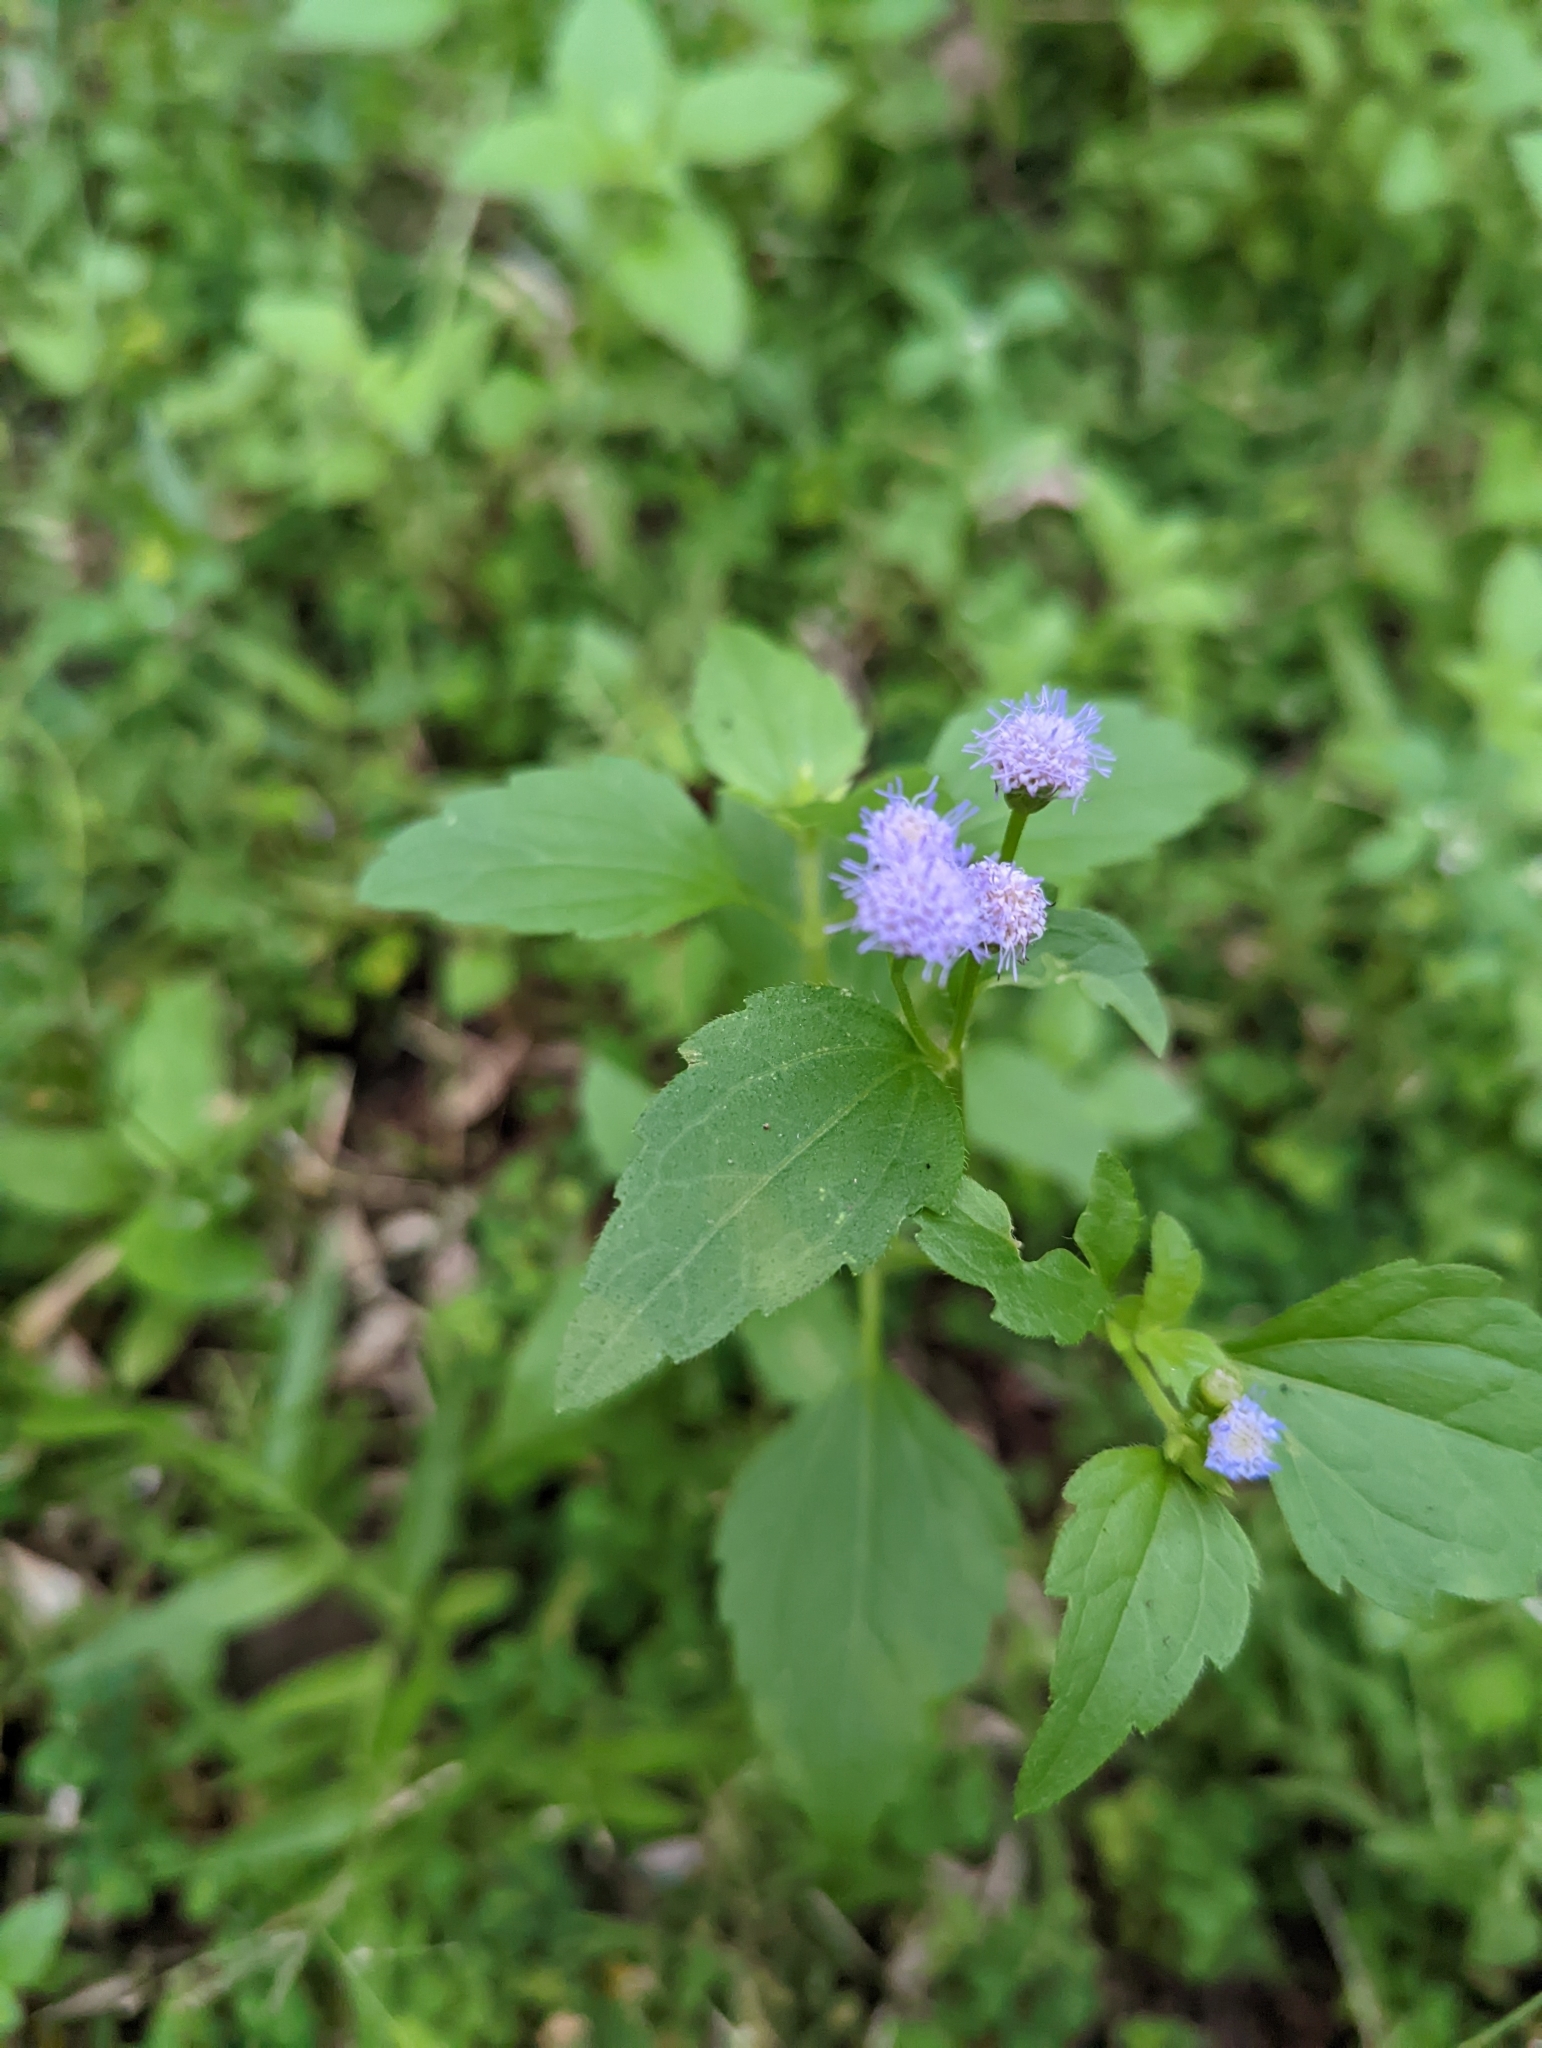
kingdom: Plantae
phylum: Tracheophyta
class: Magnoliopsida
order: Asterales
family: Asteraceae
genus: Praxelis
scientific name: Praxelis clematidea
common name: Praxelis
